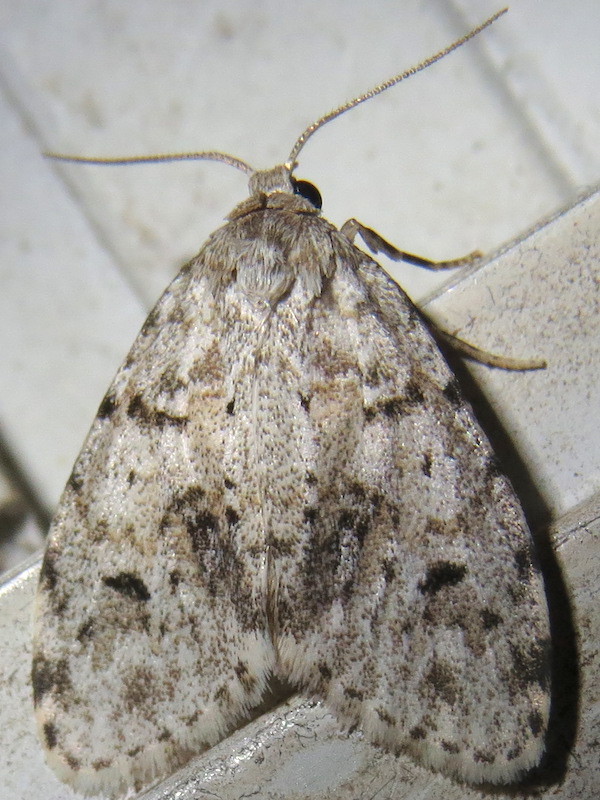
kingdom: Animalia
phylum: Arthropoda
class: Insecta
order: Lepidoptera
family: Erebidae
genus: Clemensia
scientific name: Clemensia albata
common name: Little white lichen moth
